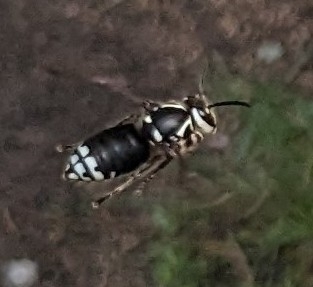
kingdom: Animalia
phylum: Arthropoda
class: Insecta
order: Hymenoptera
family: Vespidae
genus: Dolichovespula
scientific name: Dolichovespula maculata
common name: Bald-faced hornet
